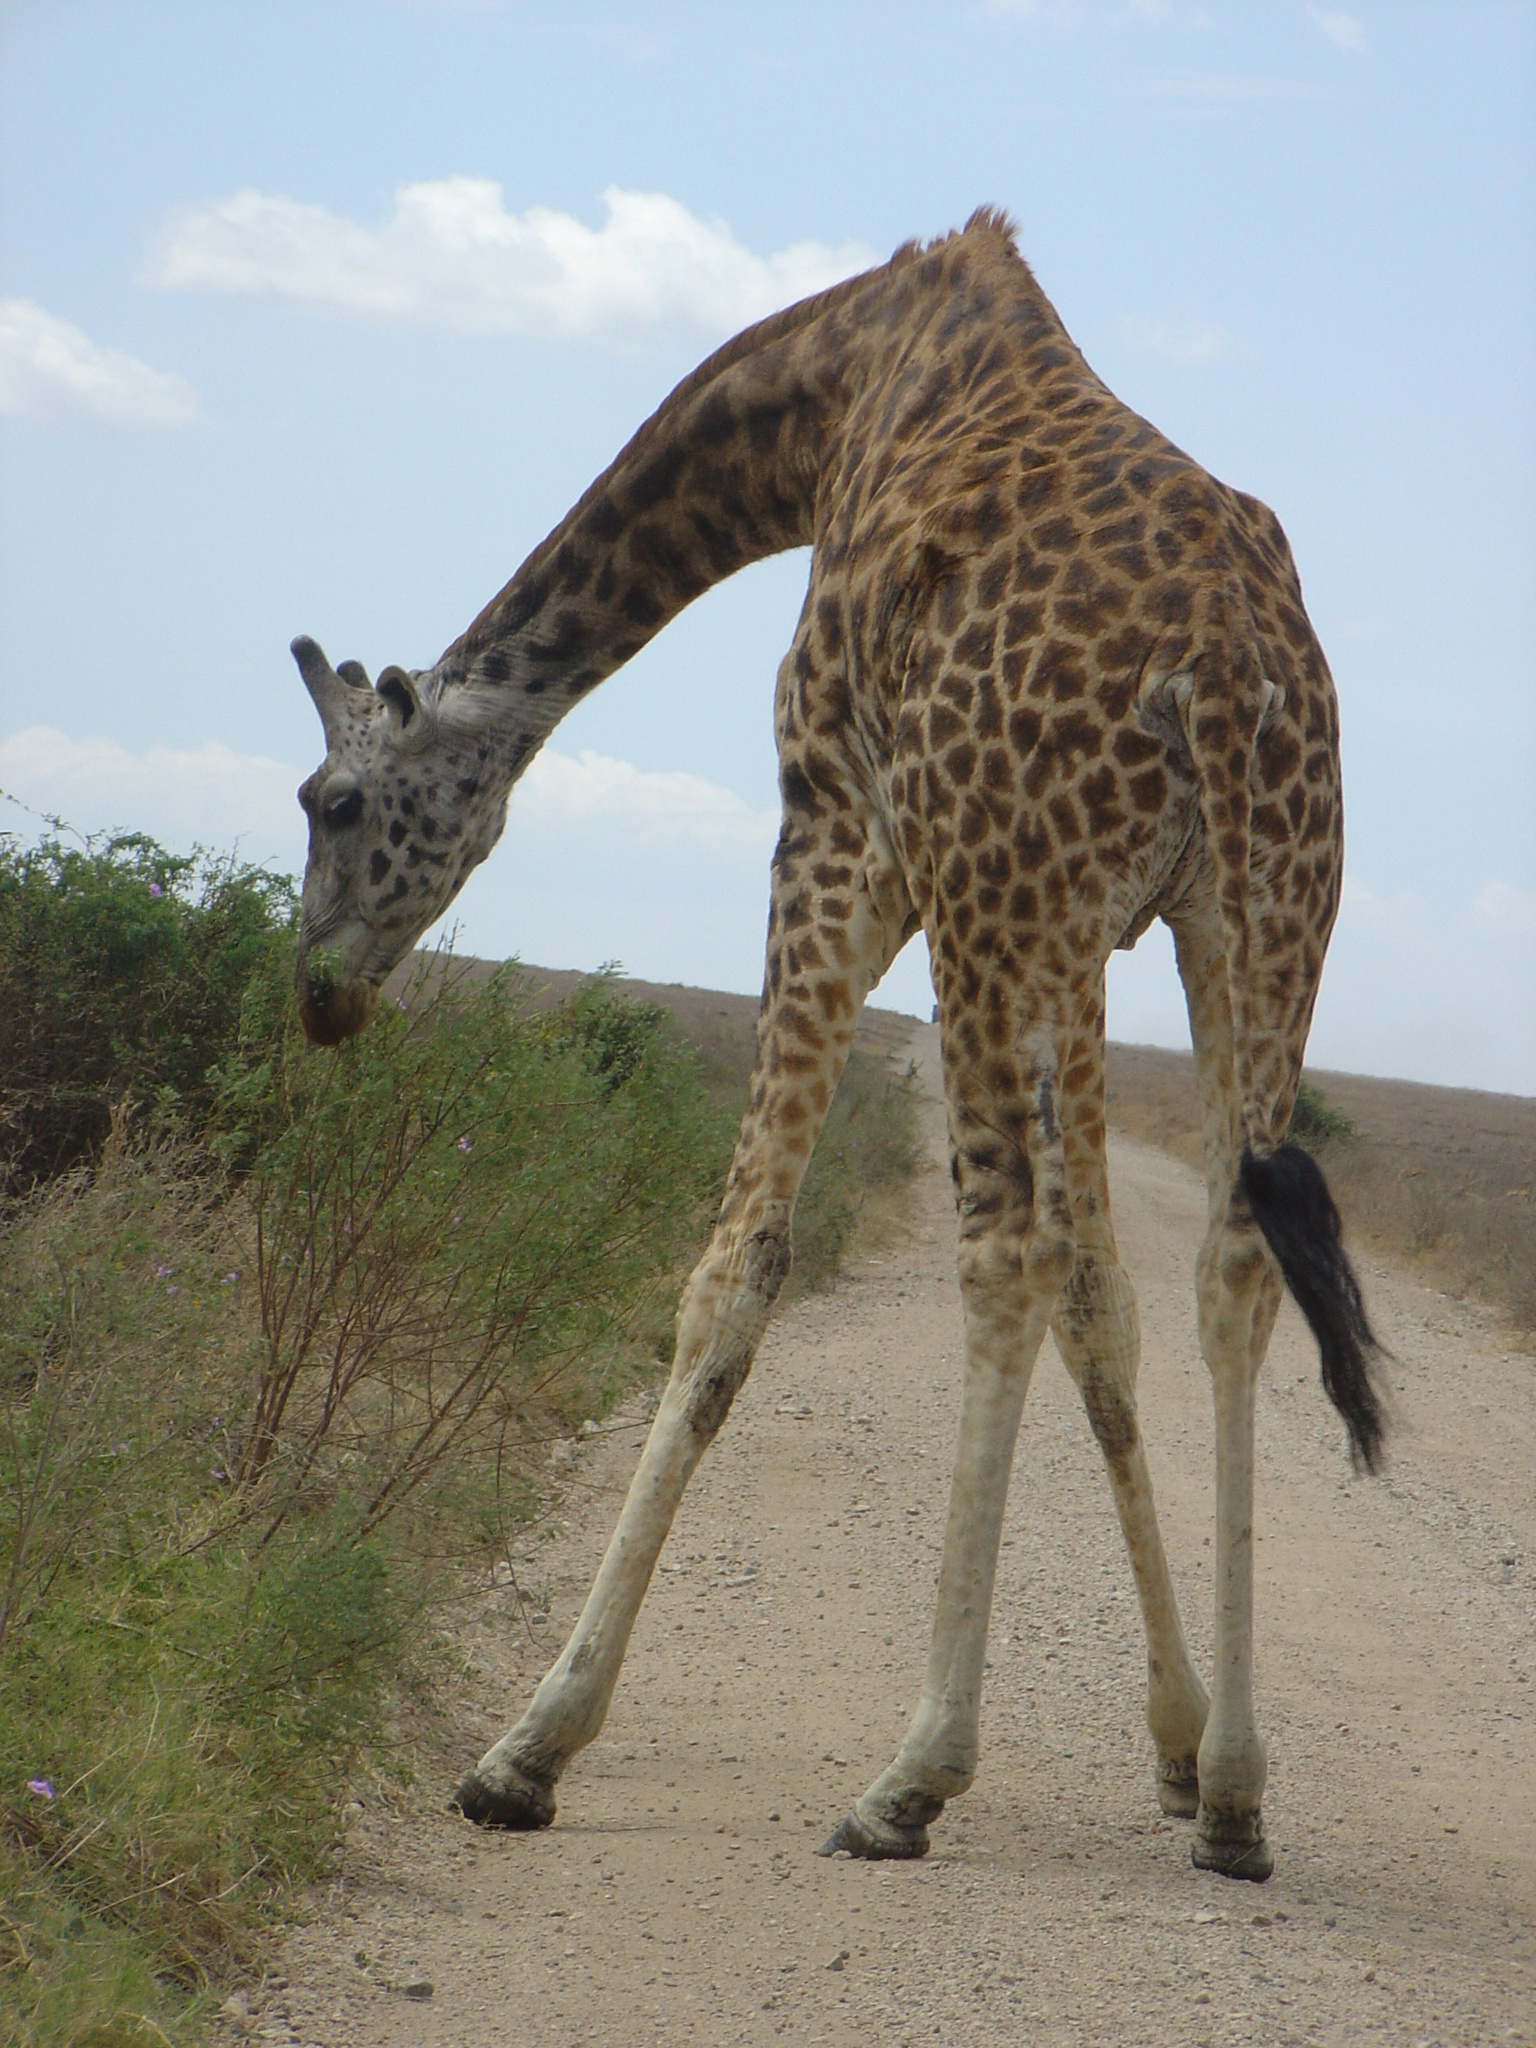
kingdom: Animalia
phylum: Chordata
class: Mammalia
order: Artiodactyla
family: Giraffidae
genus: Giraffa
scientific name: Giraffa tippelskirchi
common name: Masai giraffe
